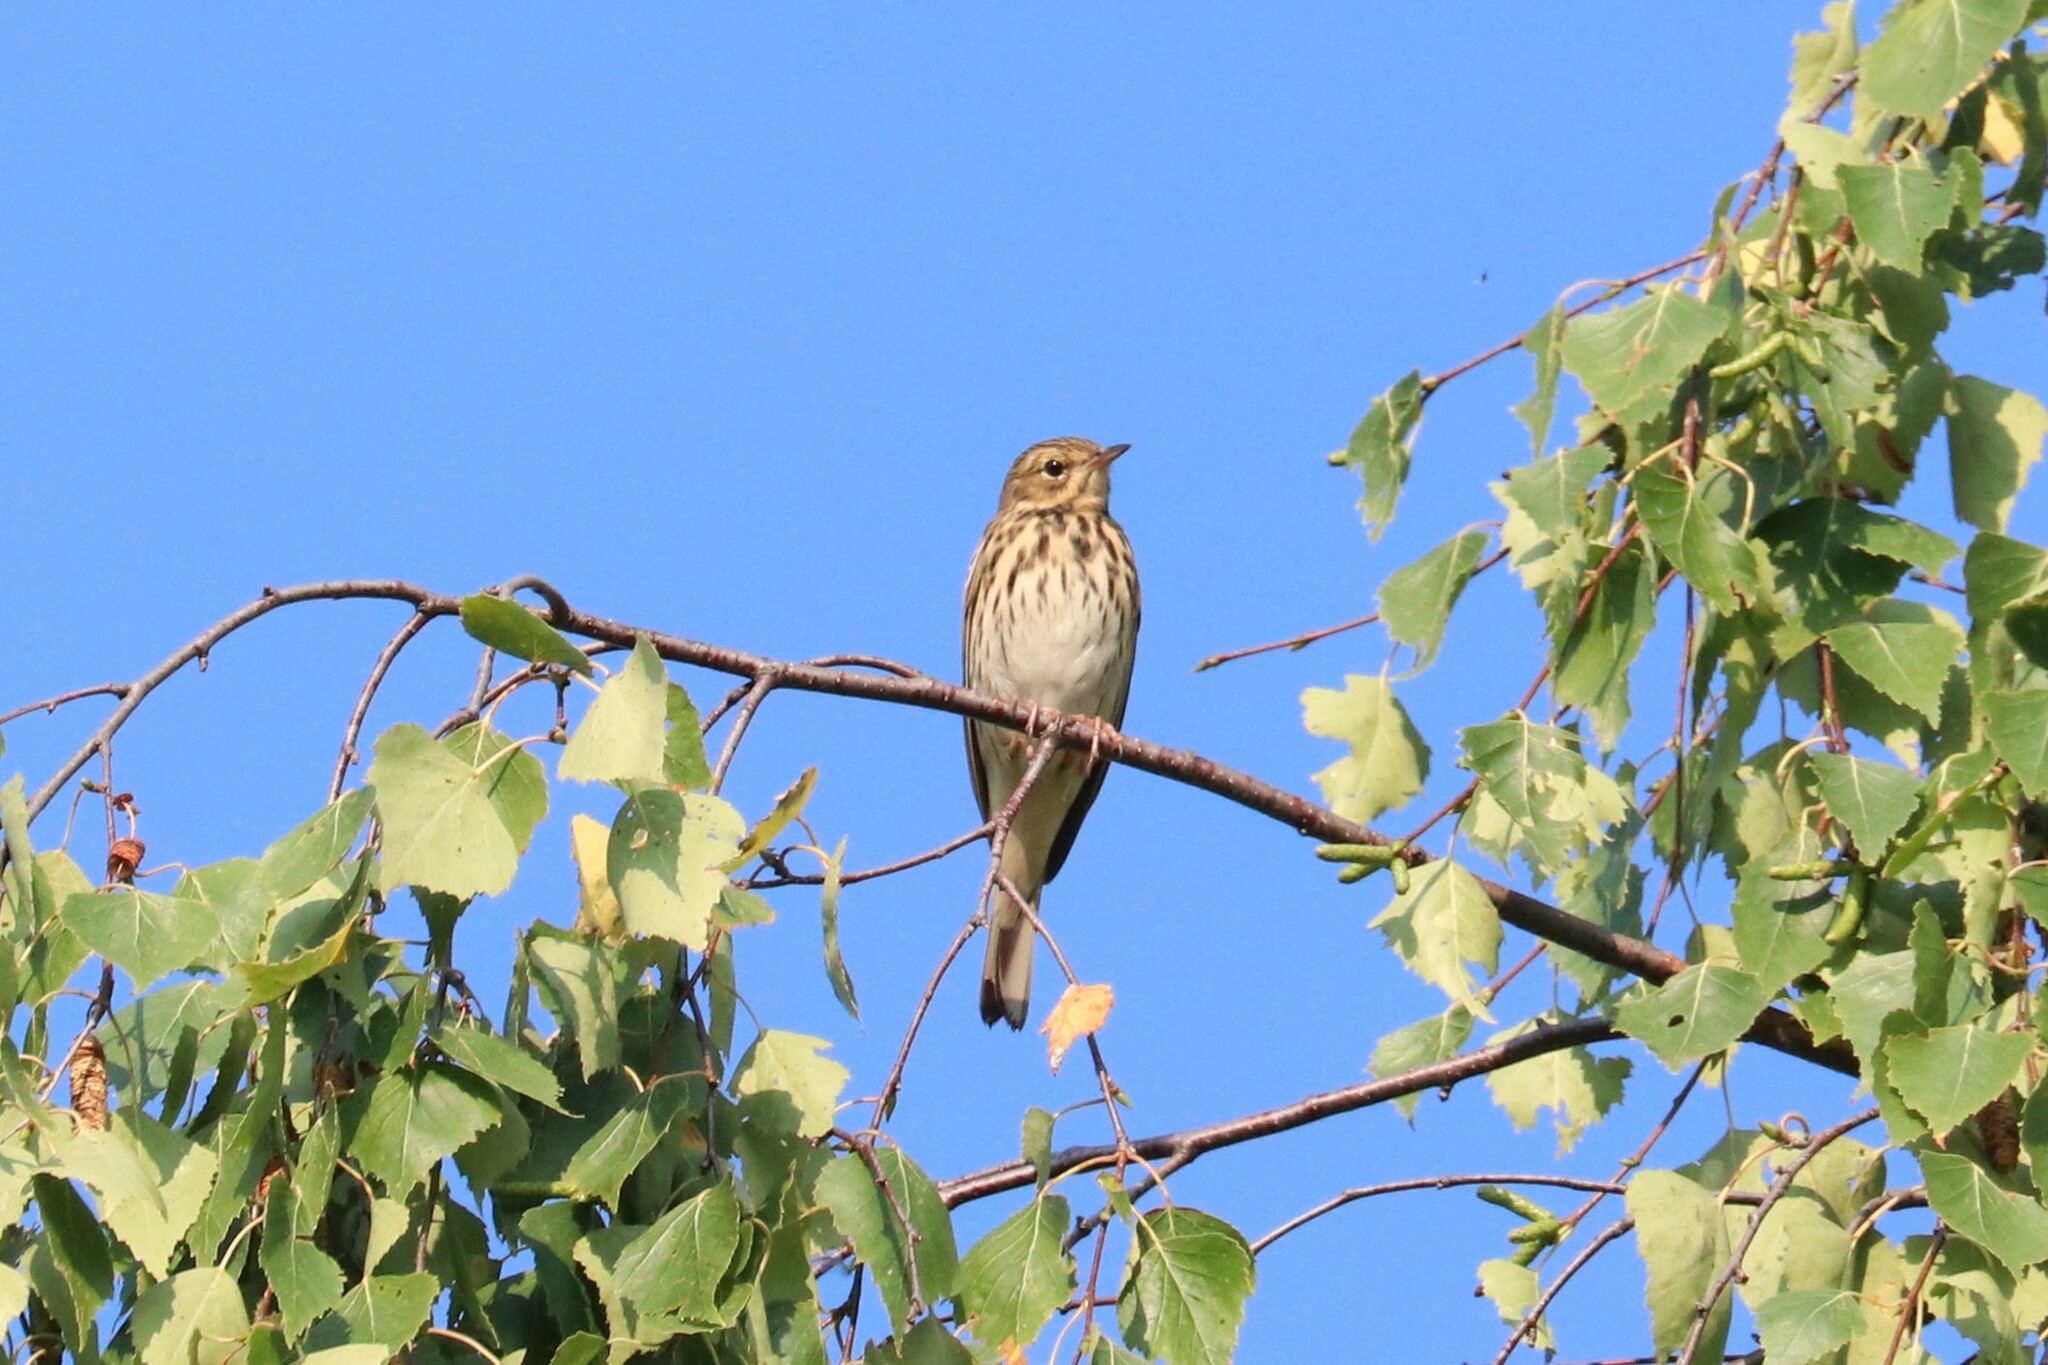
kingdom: Animalia
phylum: Chordata
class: Aves
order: Passeriformes
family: Motacillidae
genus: Anthus
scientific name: Anthus trivialis
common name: Tree pipit
